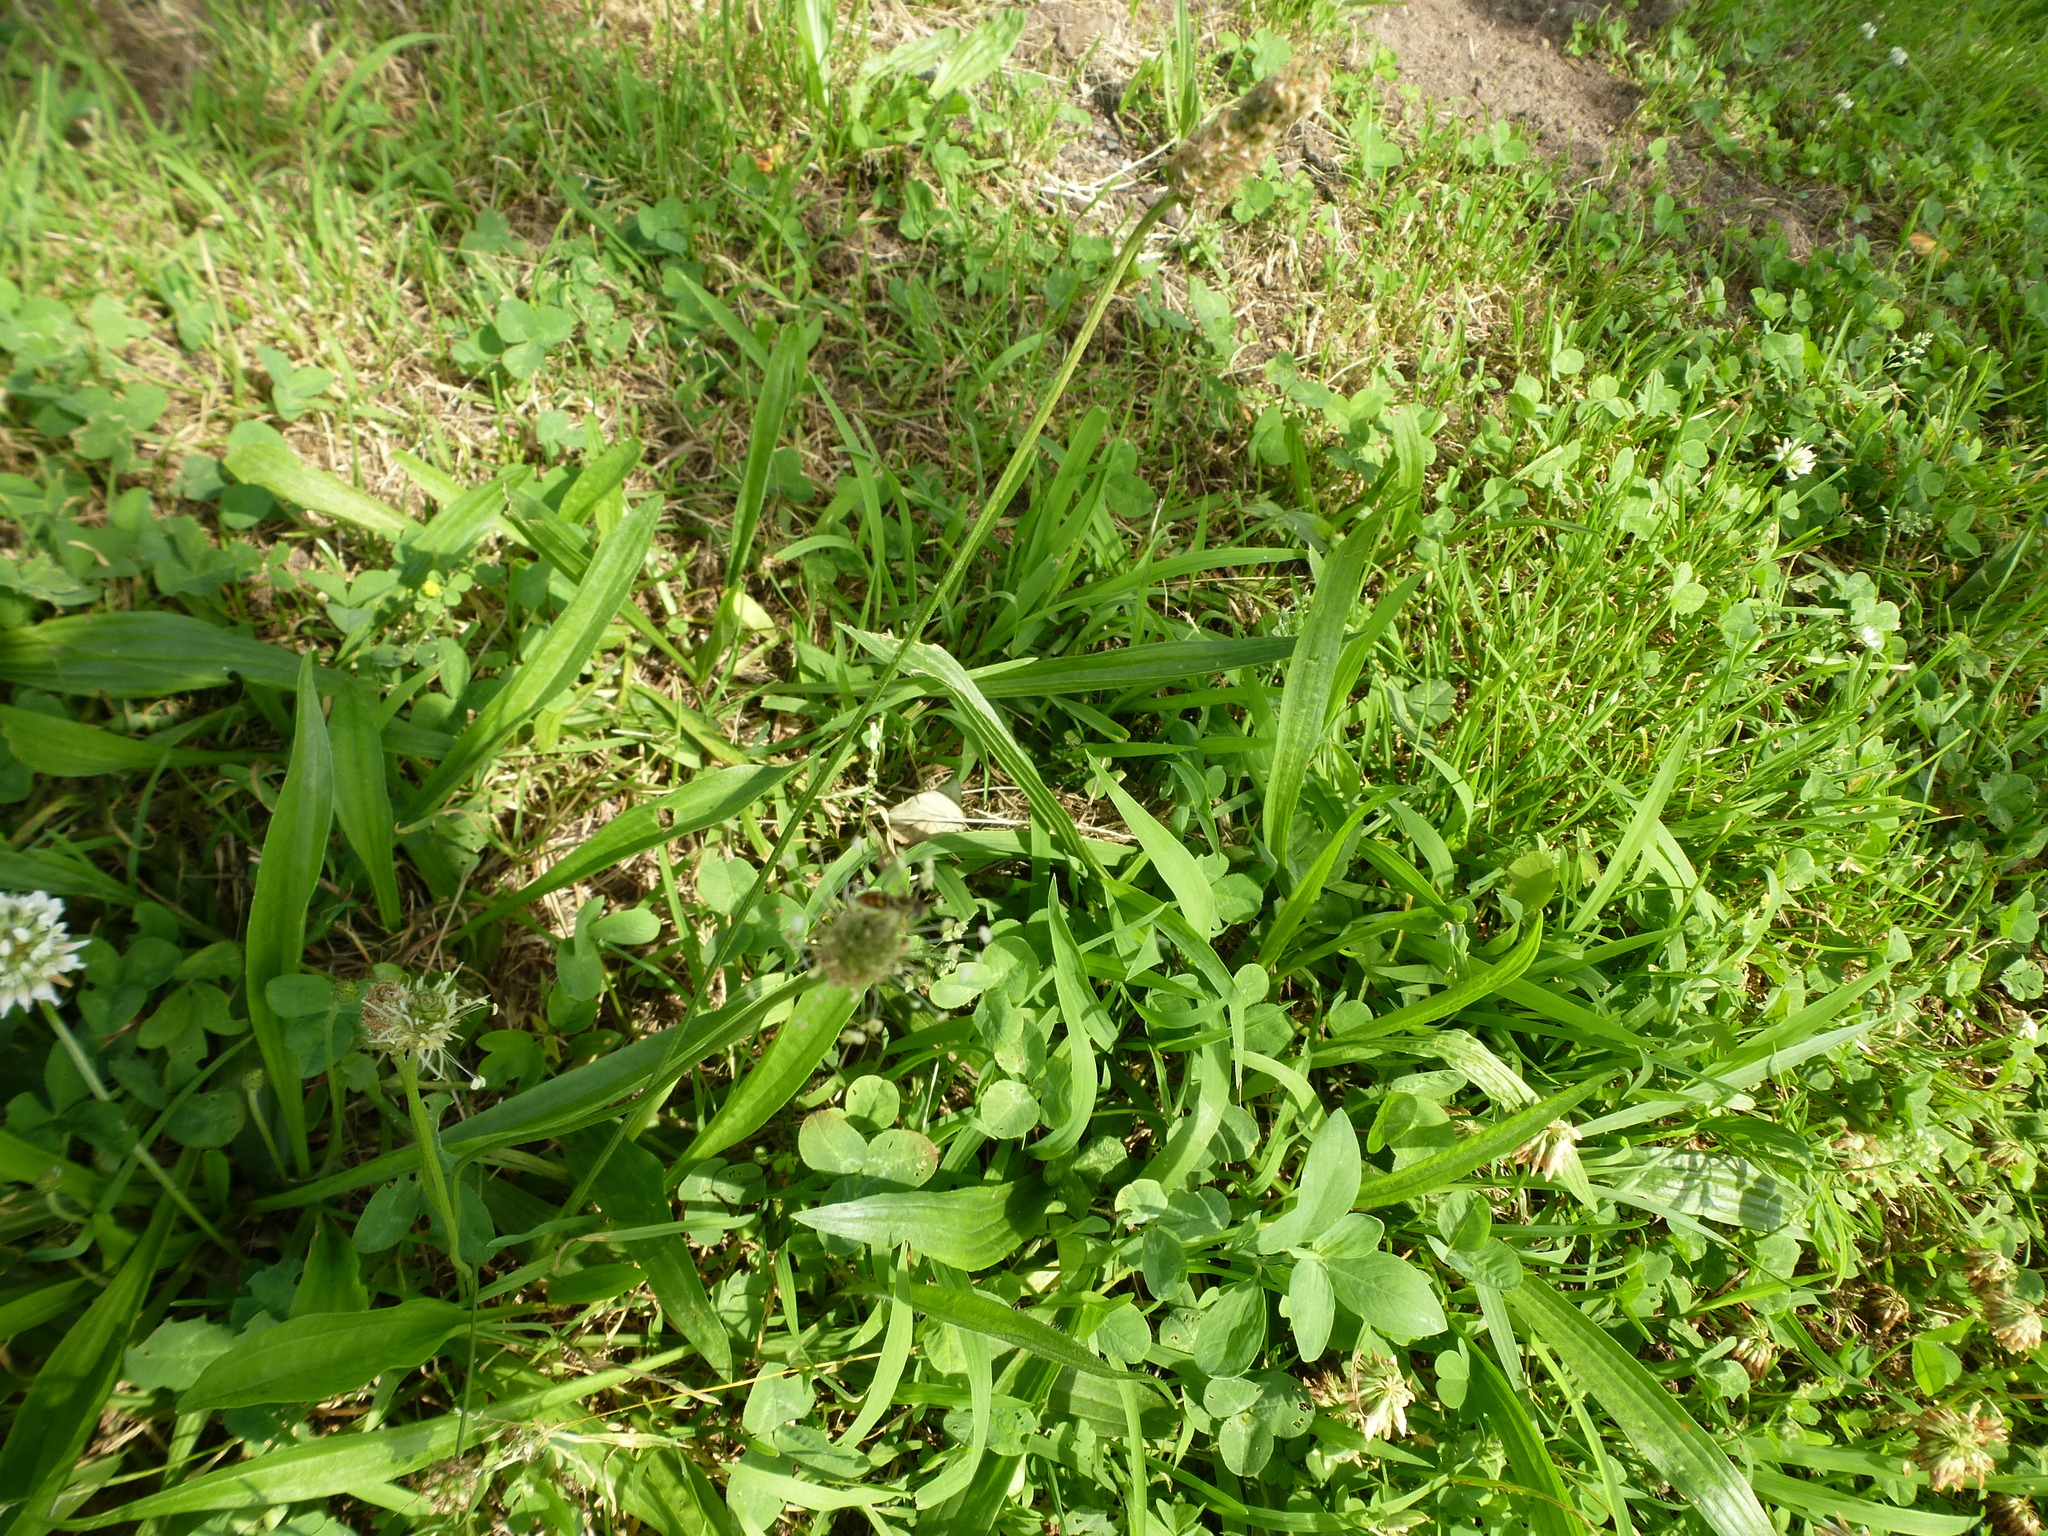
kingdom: Plantae
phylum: Tracheophyta
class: Magnoliopsida
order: Lamiales
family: Plantaginaceae
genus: Plantago
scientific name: Plantago lanceolata
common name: Ribwort plantain
